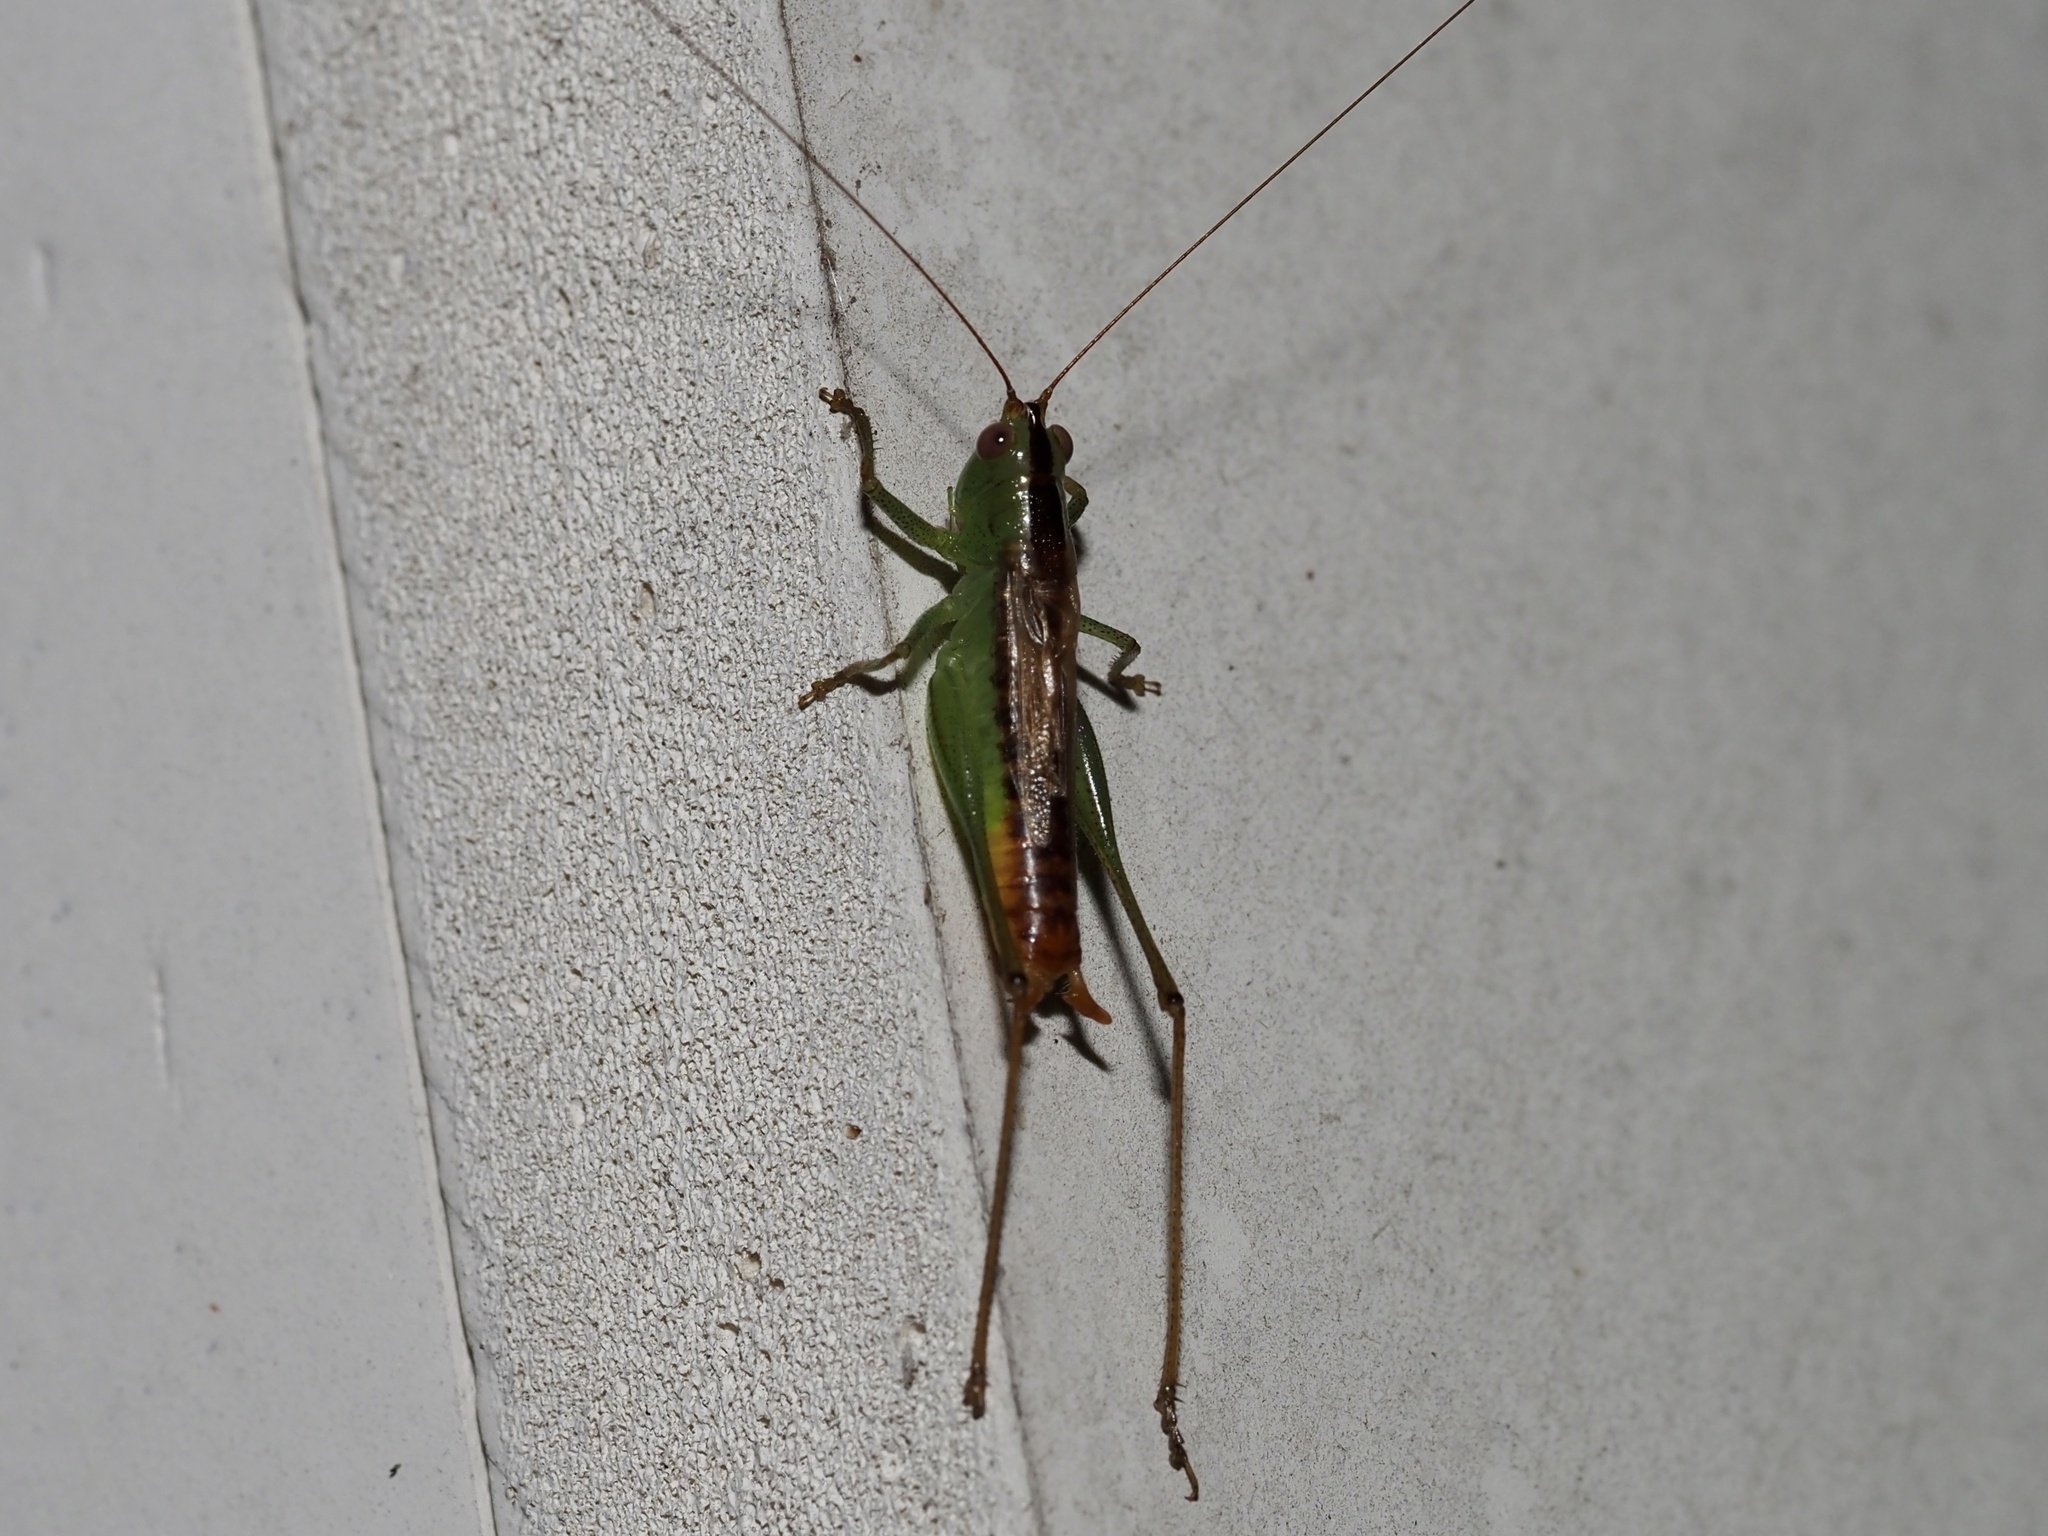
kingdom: Animalia
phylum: Arthropoda
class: Insecta
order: Orthoptera
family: Tettigoniidae
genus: Conocephalus
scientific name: Conocephalus brevipennis
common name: Short-winged meadow katydid
